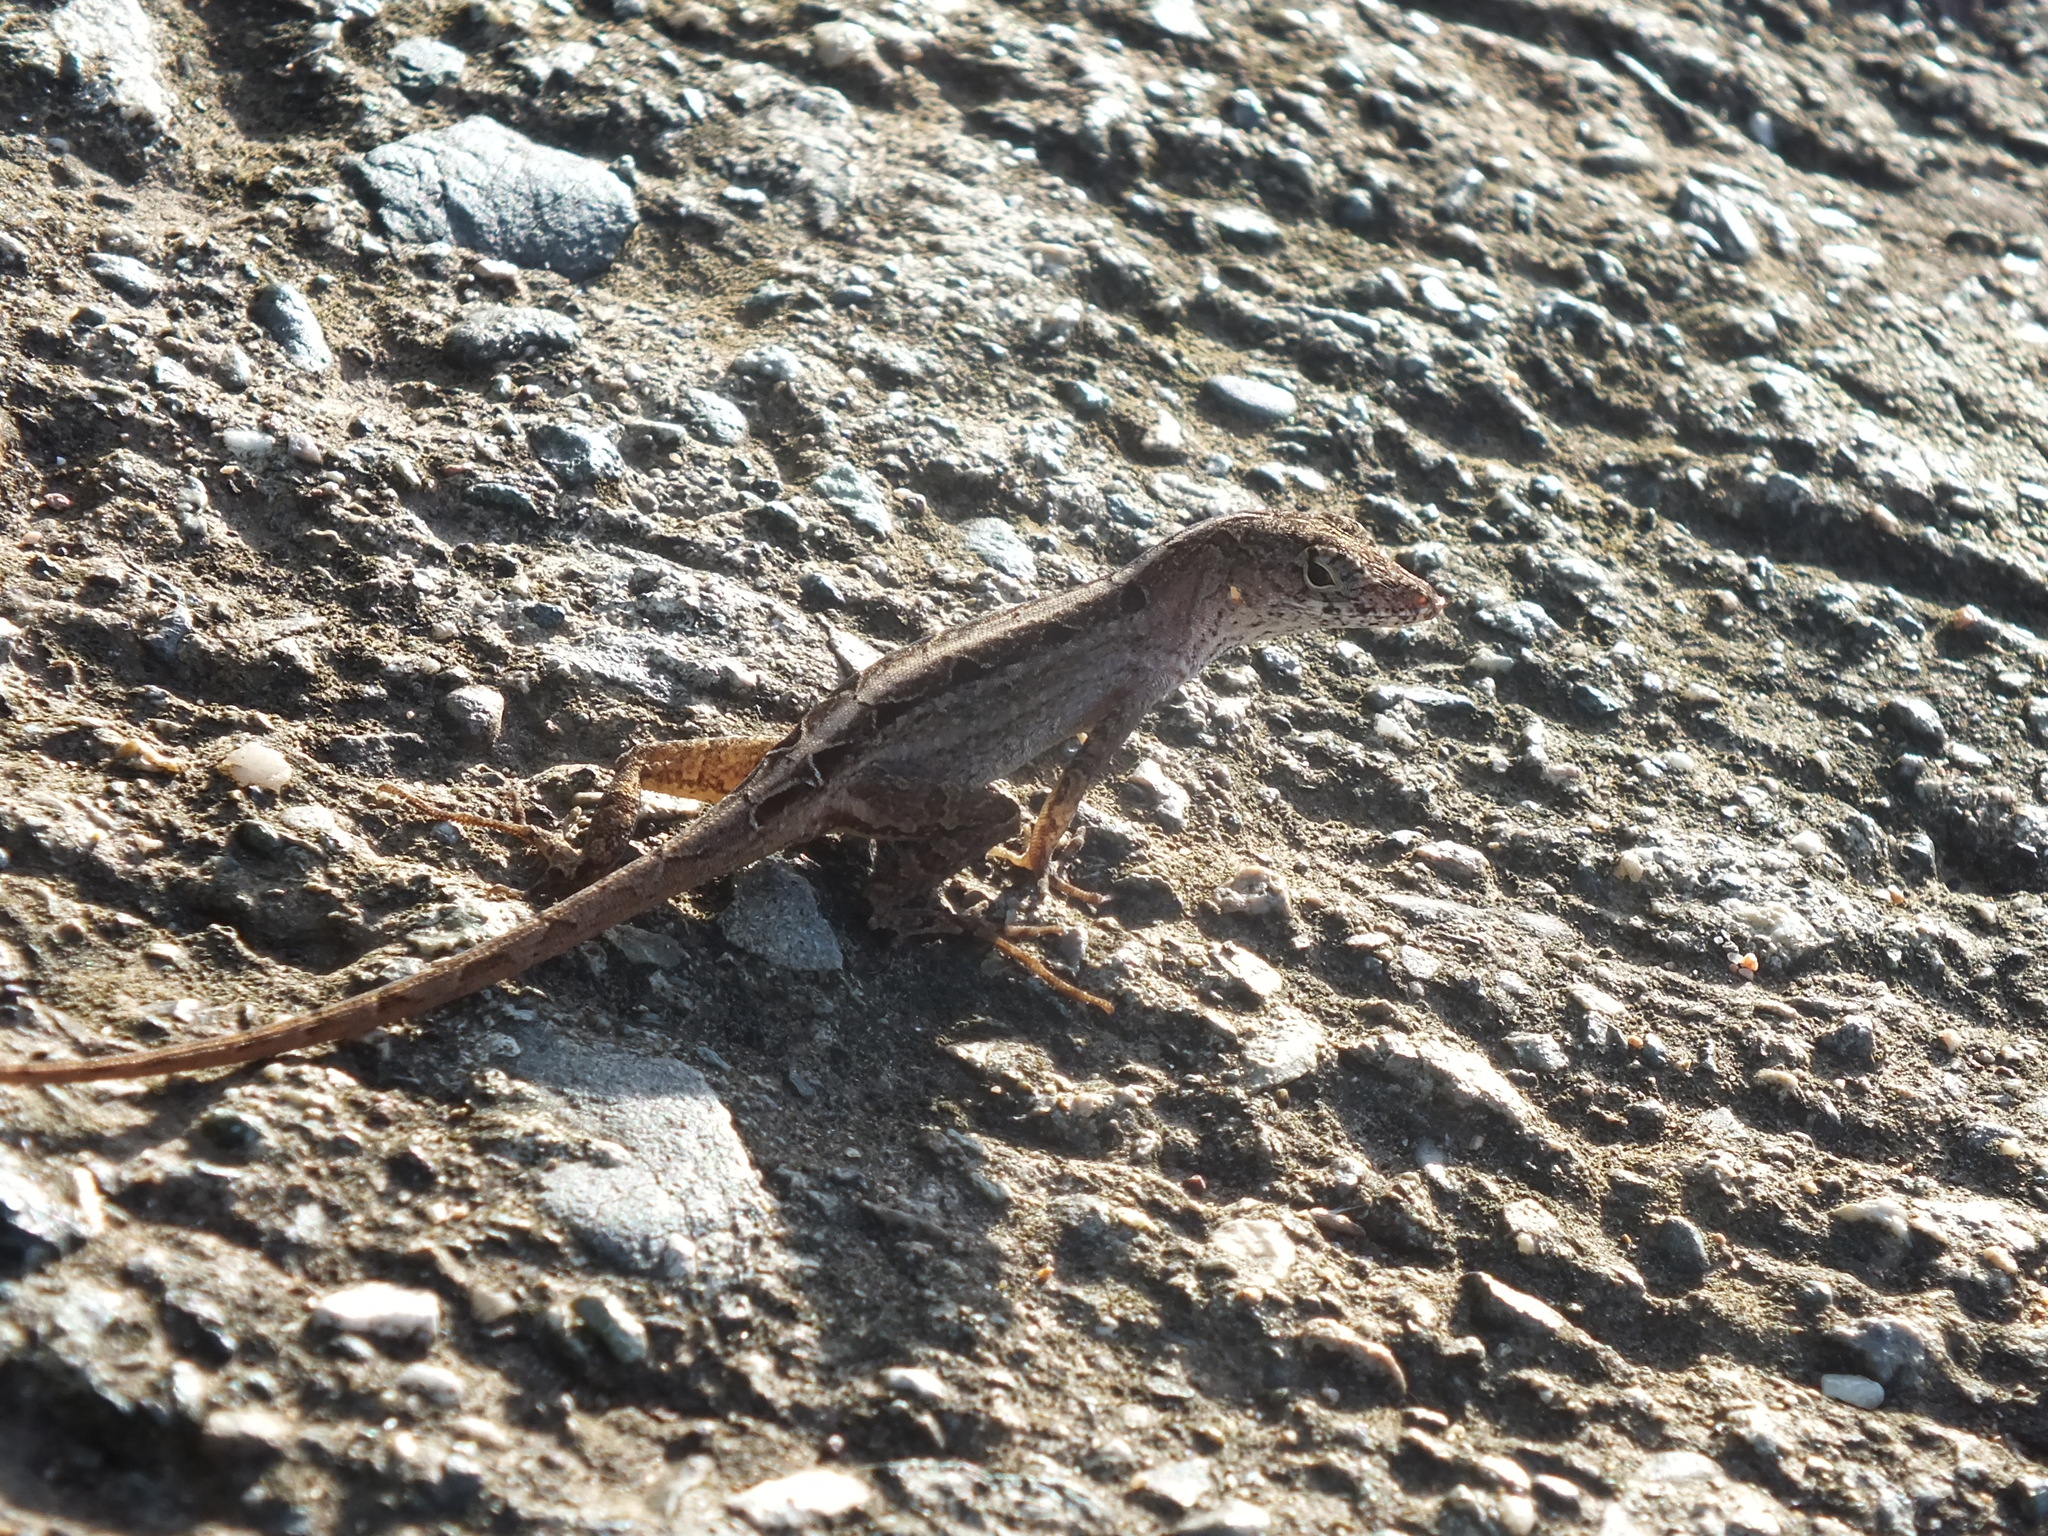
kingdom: Animalia
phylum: Chordata
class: Squamata
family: Dactyloidae
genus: Anolis
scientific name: Anolis sagrei
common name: Brown anole
